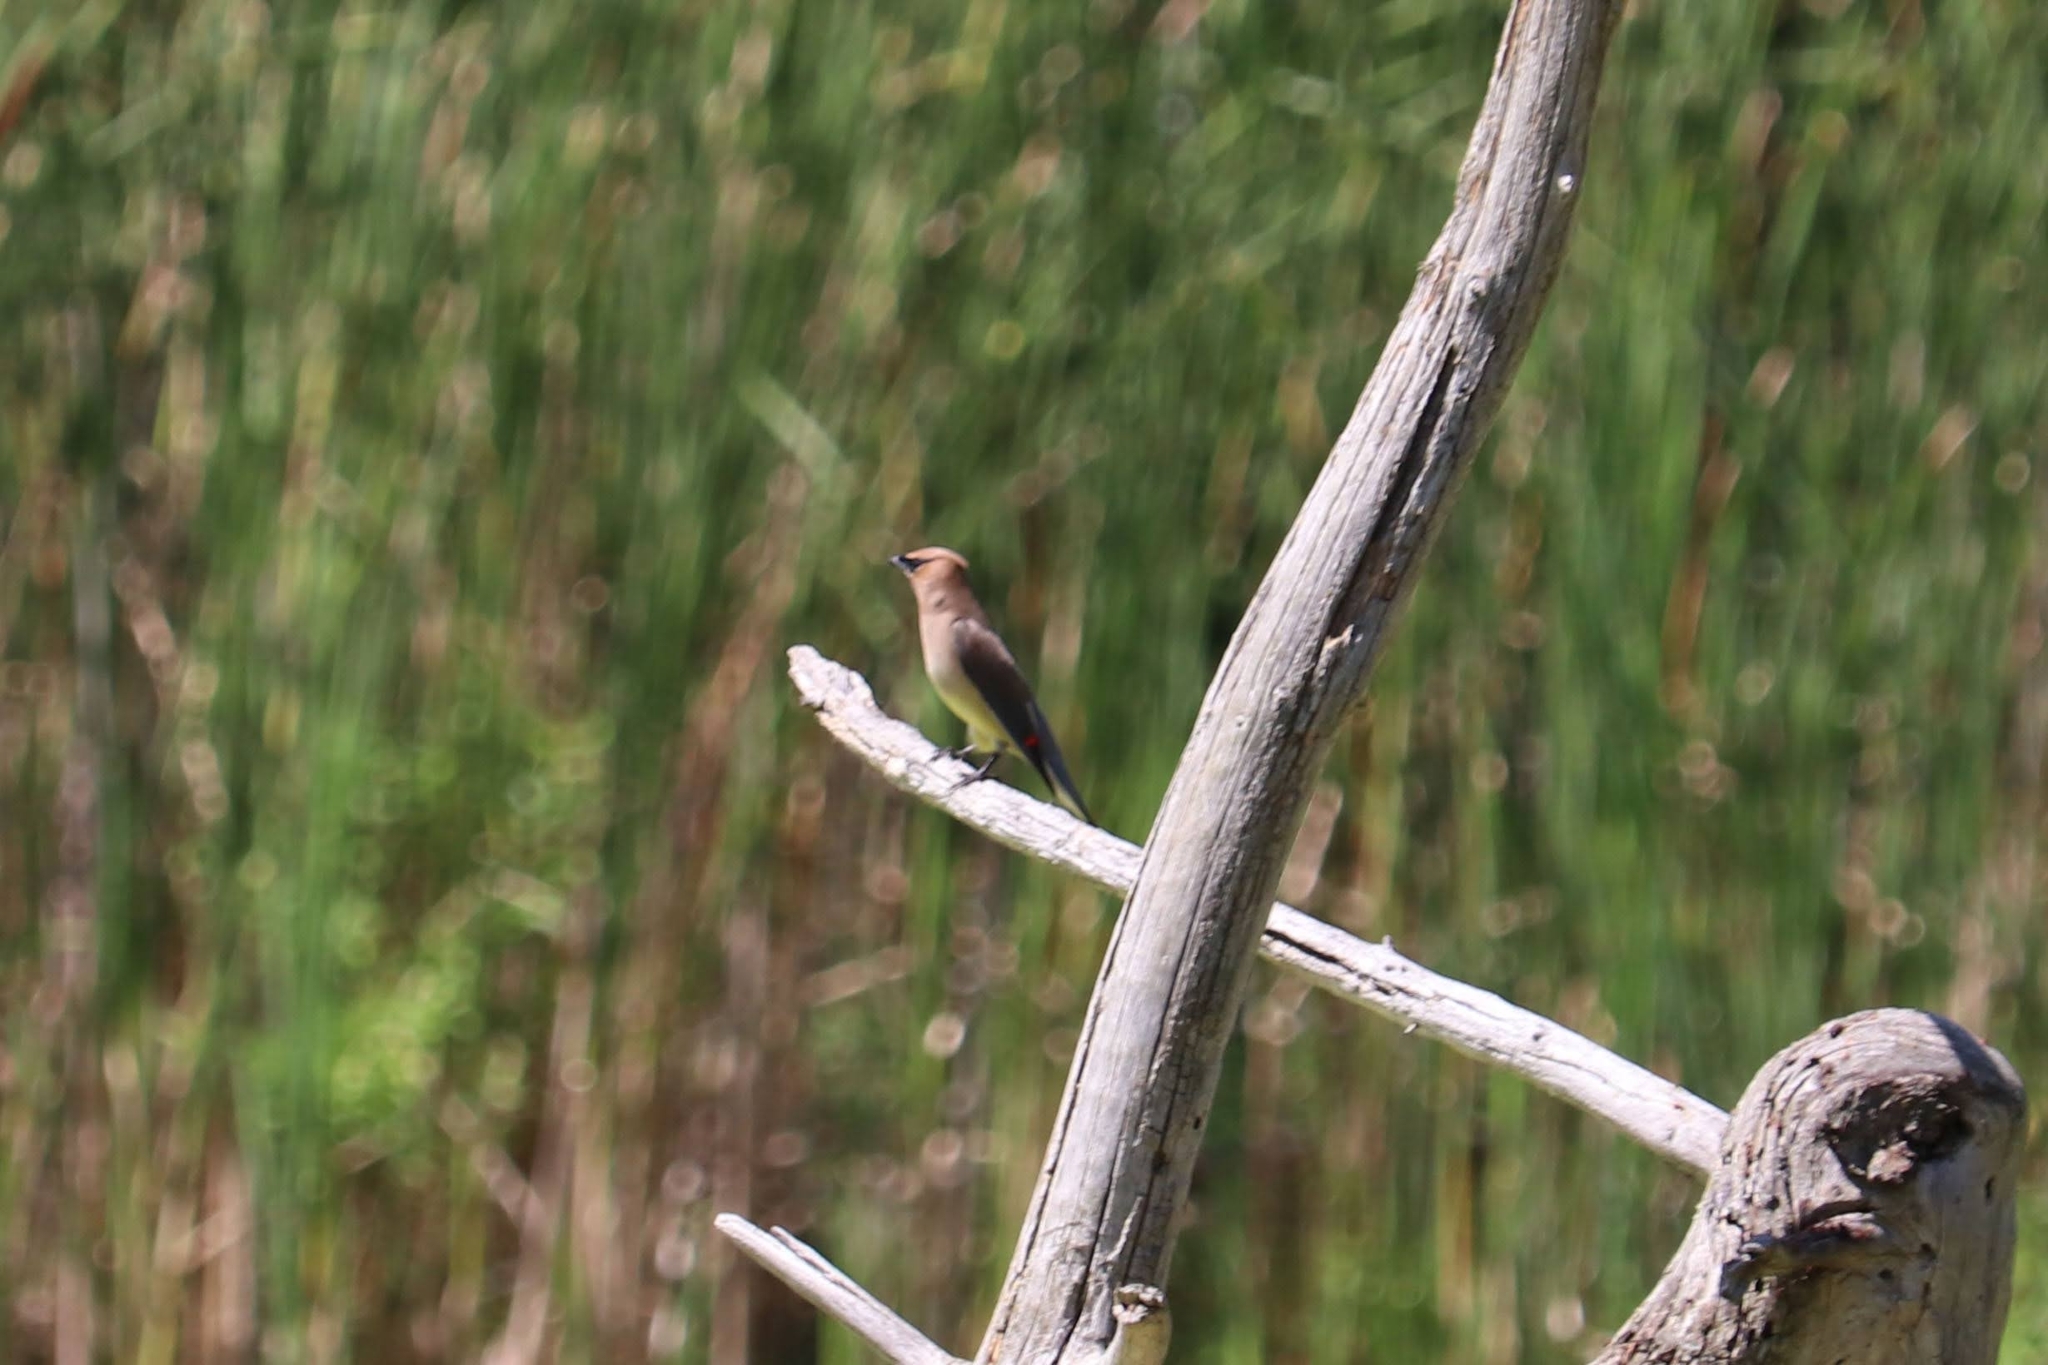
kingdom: Animalia
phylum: Chordata
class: Aves
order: Passeriformes
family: Bombycillidae
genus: Bombycilla
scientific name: Bombycilla cedrorum
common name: Cedar waxwing
